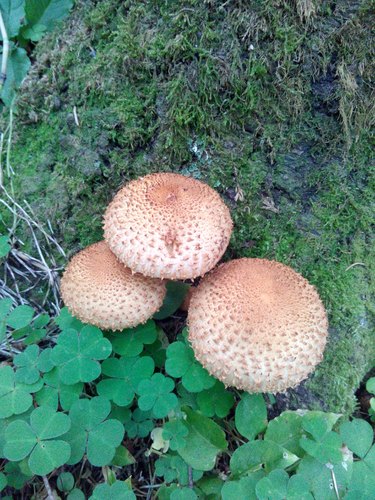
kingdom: Fungi
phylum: Basidiomycota
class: Agaricomycetes
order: Agaricales
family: Strophariaceae
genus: Pholiota
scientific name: Pholiota squarrosa
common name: Shaggy pholiota
